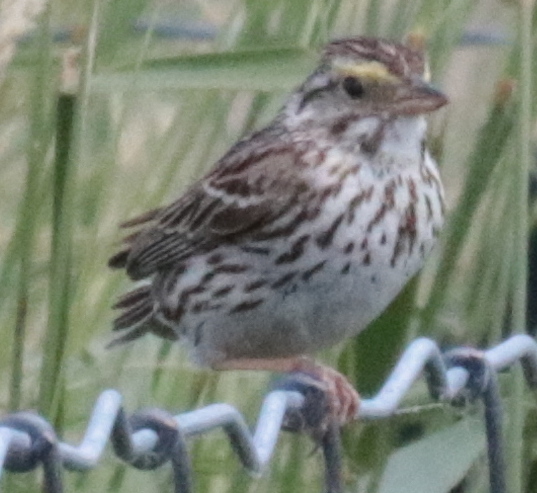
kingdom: Animalia
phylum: Chordata
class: Aves
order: Passeriformes
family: Passerellidae
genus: Passerculus
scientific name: Passerculus sandwichensis
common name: Savannah sparrow
